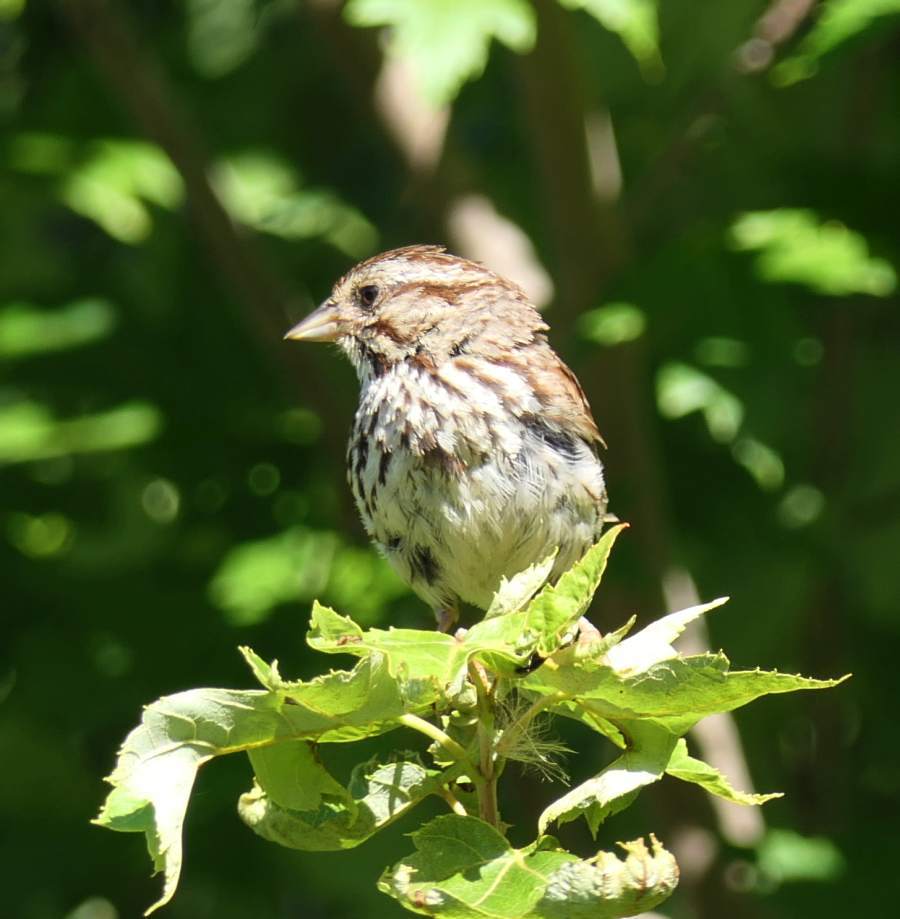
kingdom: Animalia
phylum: Chordata
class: Aves
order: Passeriformes
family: Passerellidae
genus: Melospiza
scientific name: Melospiza melodia
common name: Song sparrow
